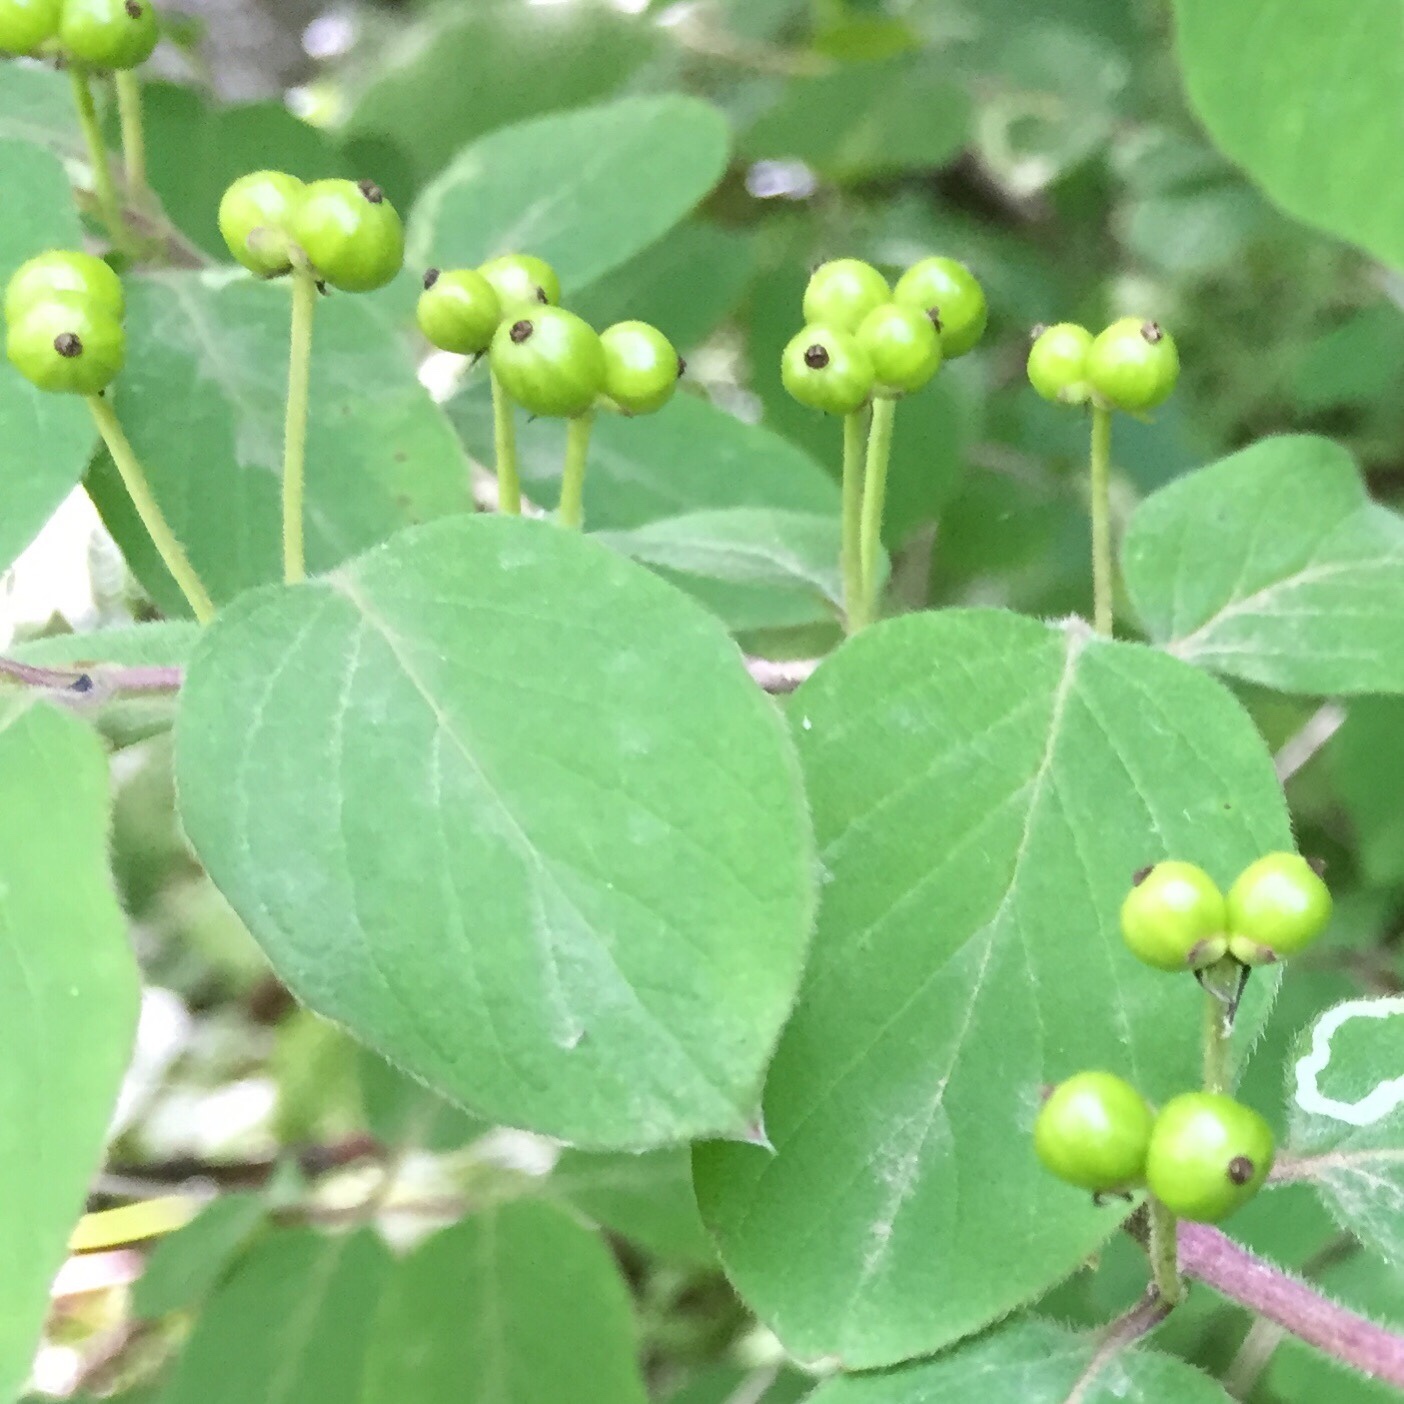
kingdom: Plantae
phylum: Tracheophyta
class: Magnoliopsida
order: Dipsacales
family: Caprifoliaceae
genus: Lonicera
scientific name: Lonicera xylosteum
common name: Fly honeysuckle
